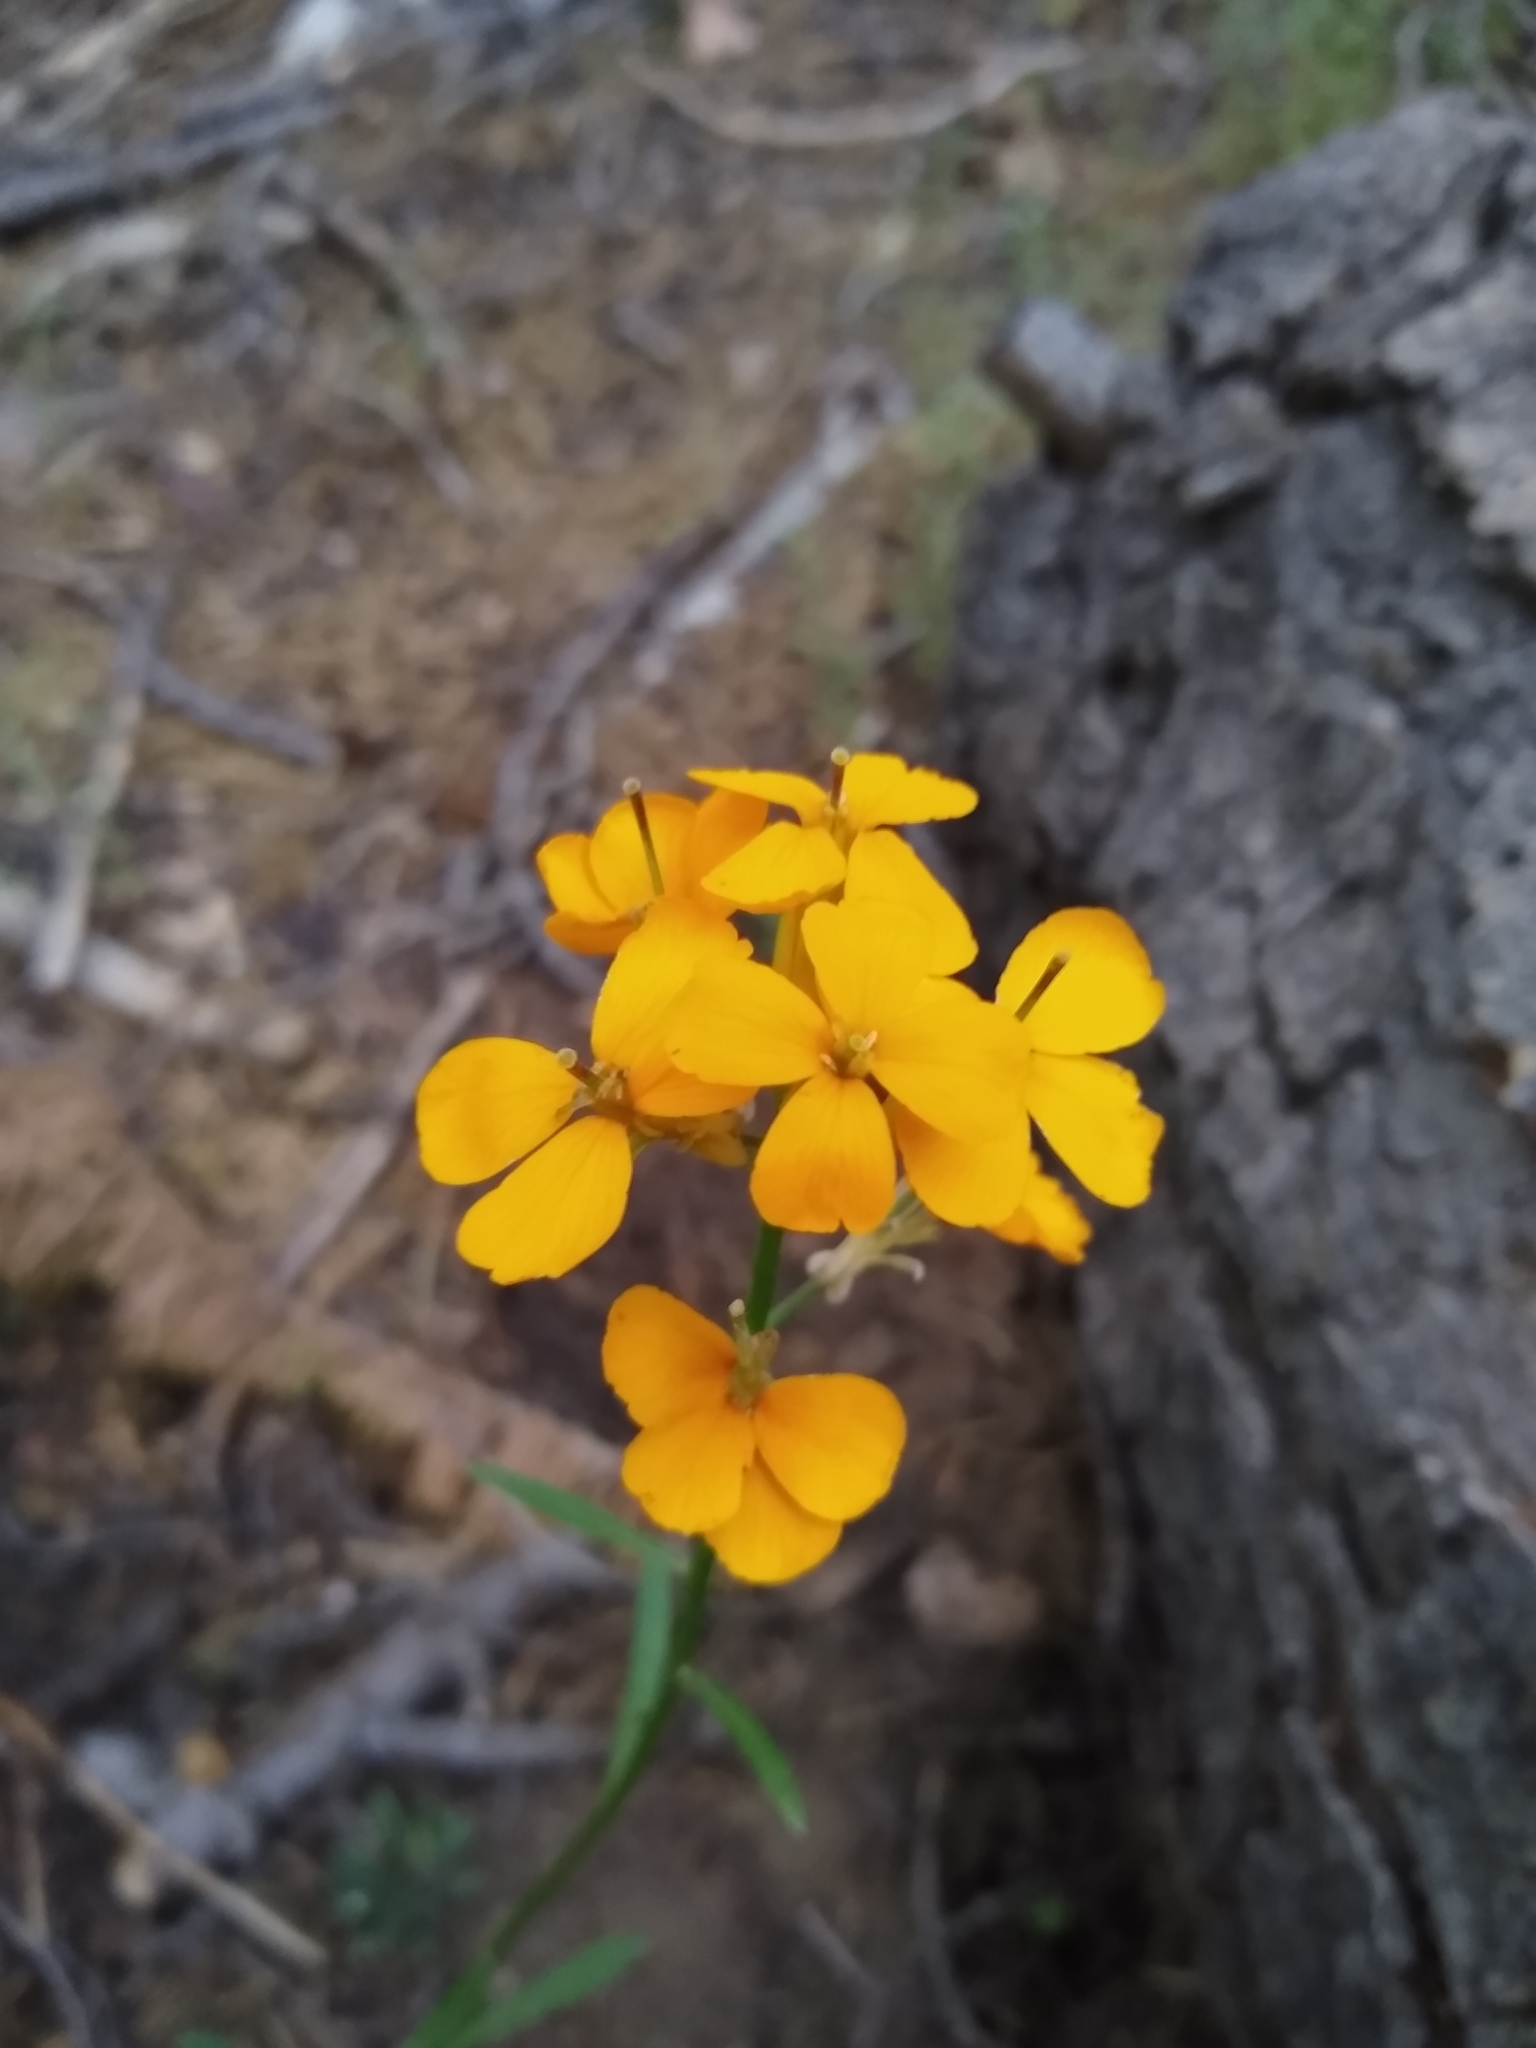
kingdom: Plantae
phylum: Tracheophyta
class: Magnoliopsida
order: Brassicales
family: Brassicaceae
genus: Erysimum
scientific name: Erysimum capitatum
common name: Western wallflower
